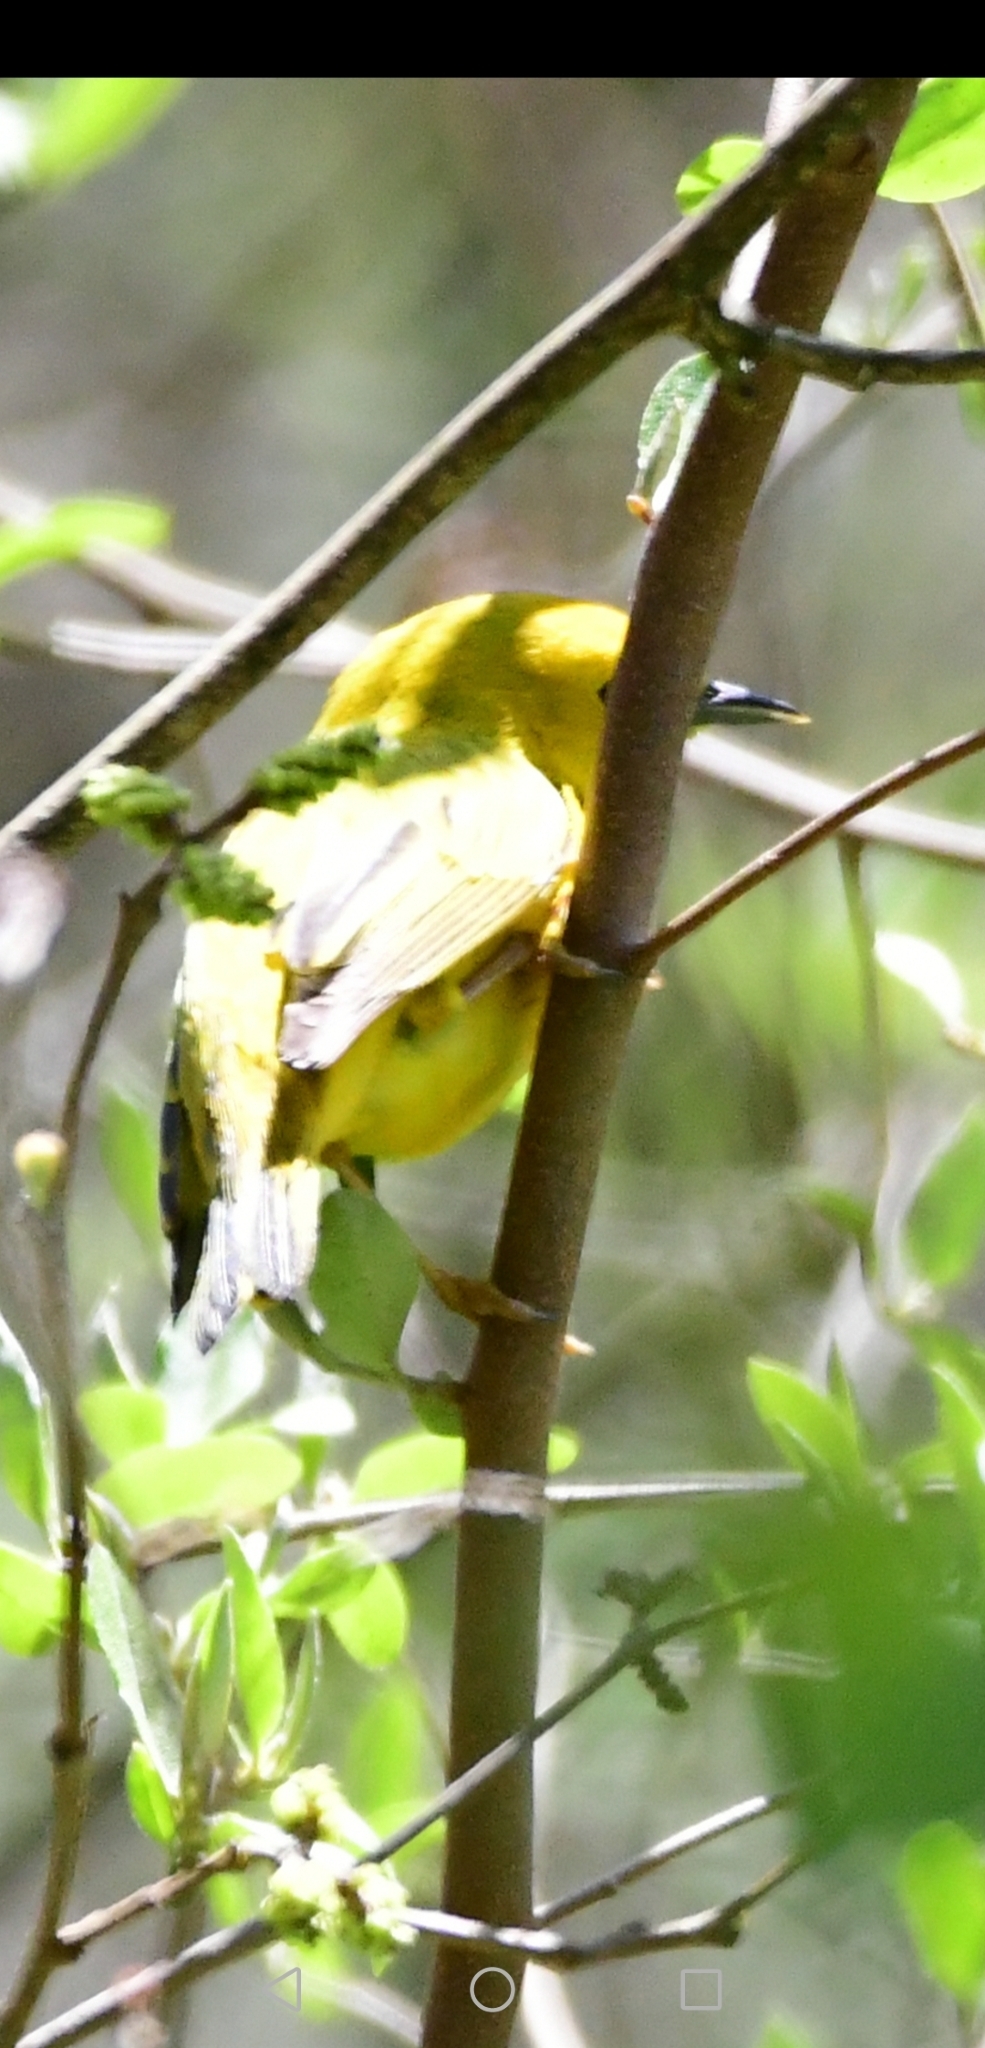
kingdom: Animalia
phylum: Chordata
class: Aves
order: Passeriformes
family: Parulidae
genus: Setophaga
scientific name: Setophaga petechia
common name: Yellow warbler
